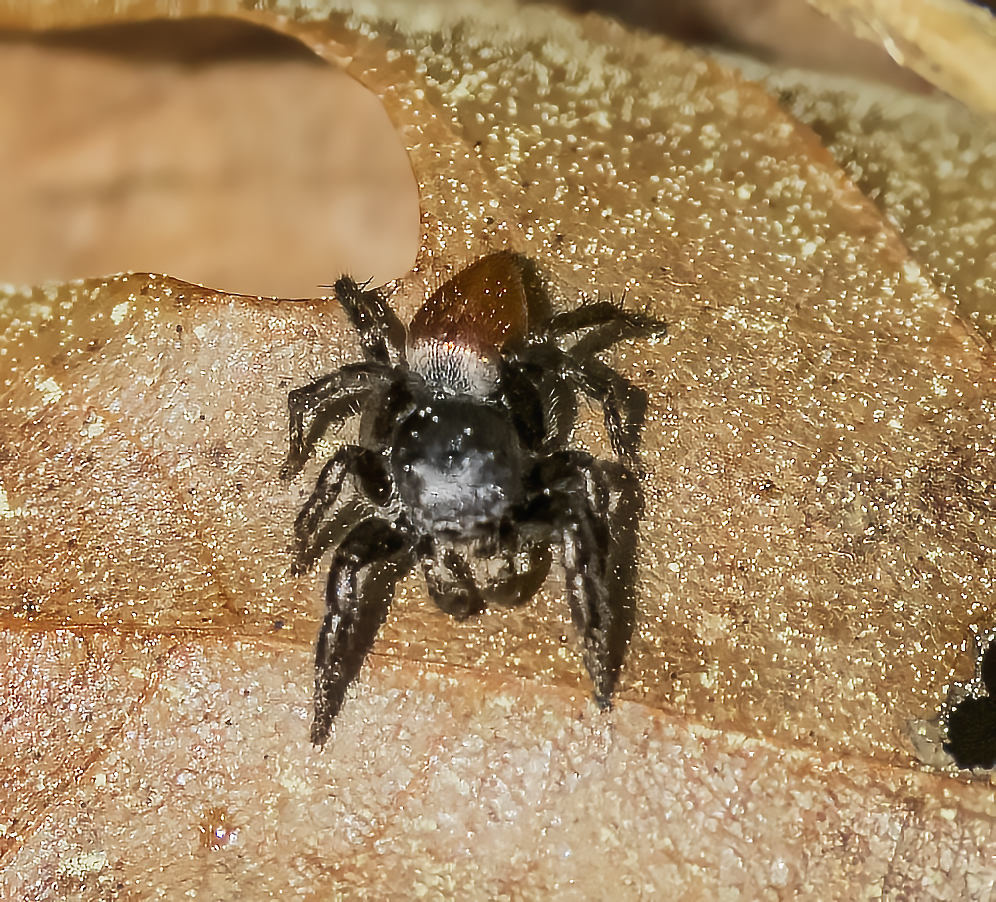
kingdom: Animalia
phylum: Arthropoda
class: Arachnida
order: Araneae
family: Salticidae
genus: Habronattus
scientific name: Habronattus decorus
